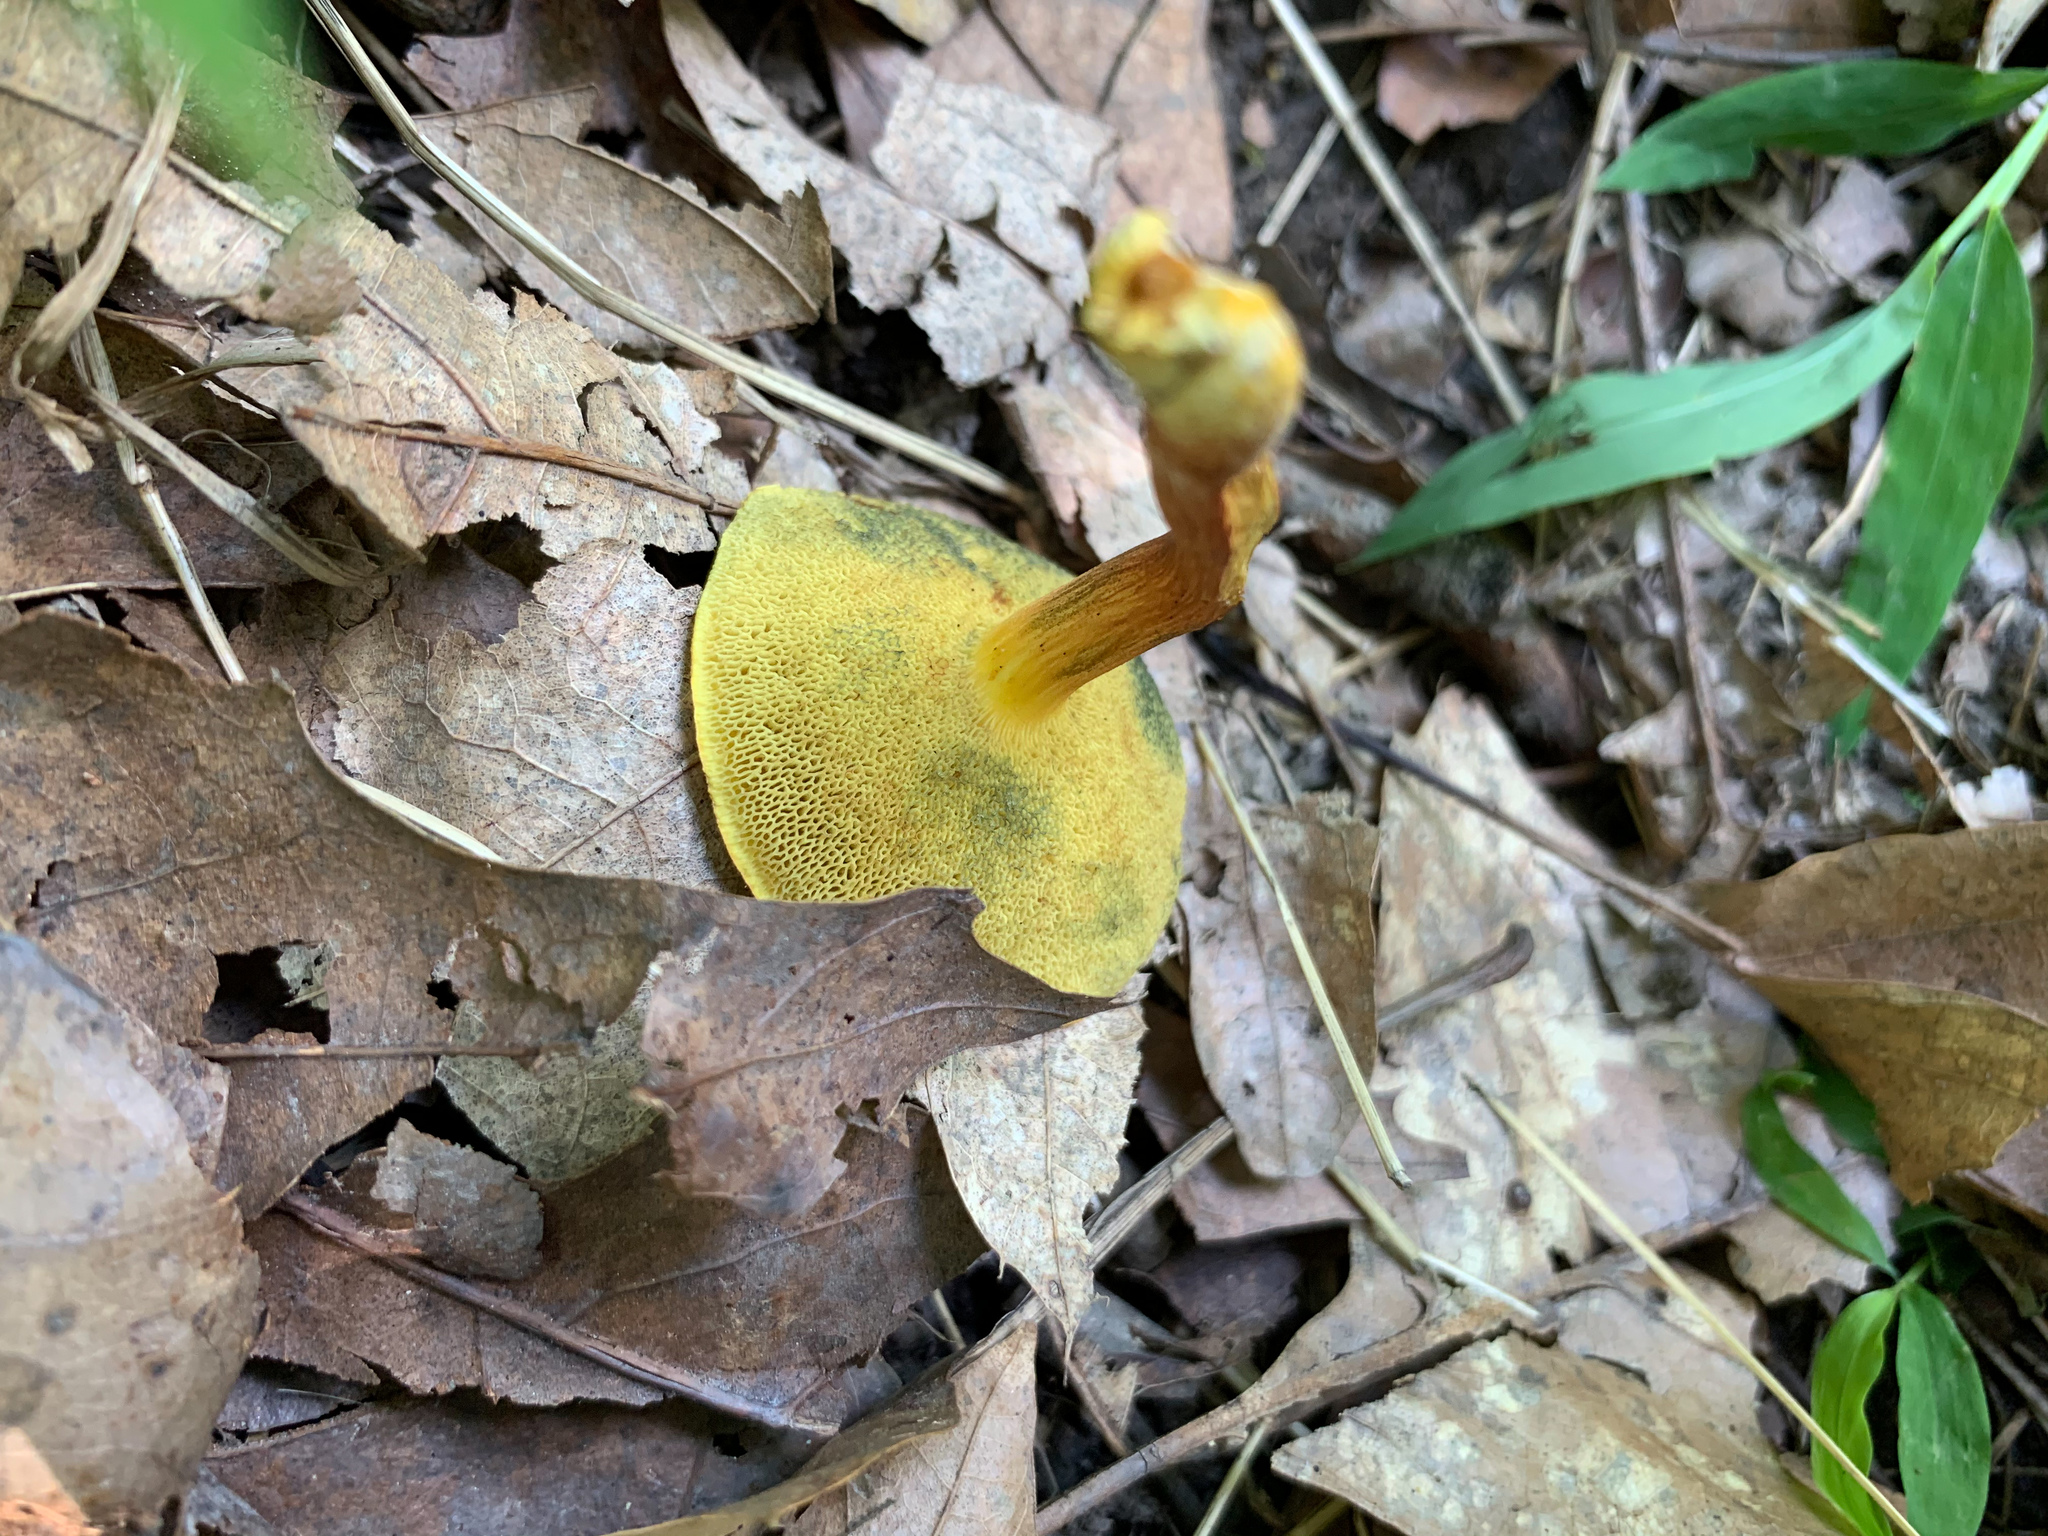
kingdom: Fungi
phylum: Basidiomycota
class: Agaricomycetes
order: Boletales
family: Boletaceae
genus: Xerocomellus
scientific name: Xerocomellus chrysenteron
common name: Red-cracking bolete
